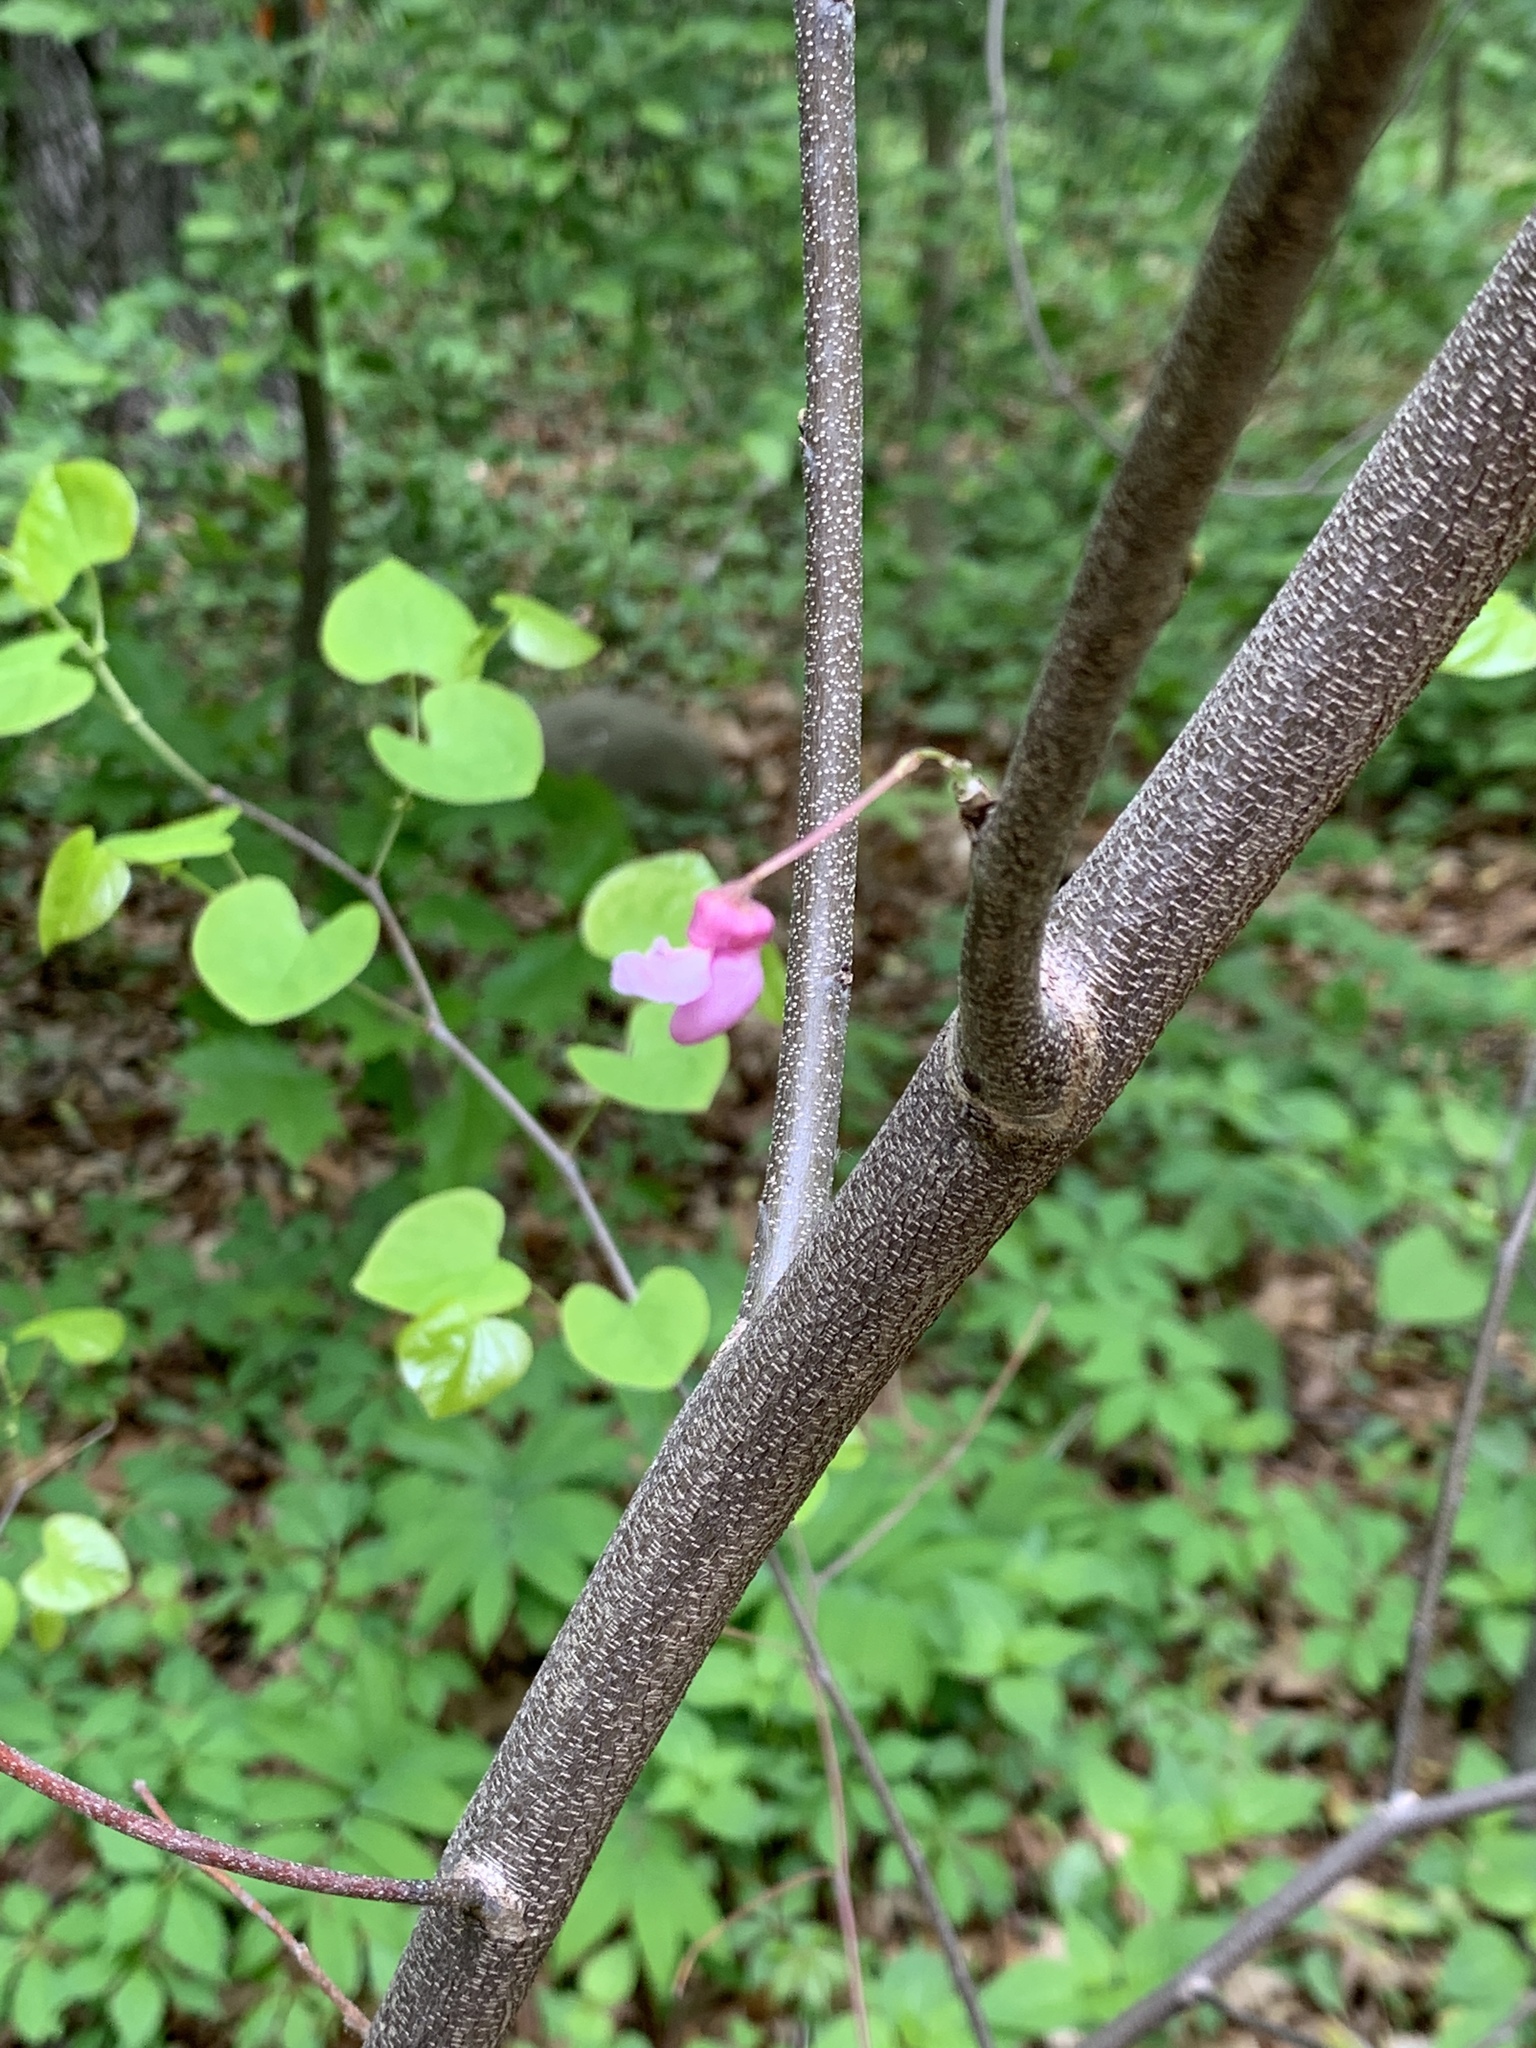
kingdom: Plantae
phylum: Tracheophyta
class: Magnoliopsida
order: Fabales
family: Fabaceae
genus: Cercis
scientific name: Cercis canadensis
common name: Eastern redbud
